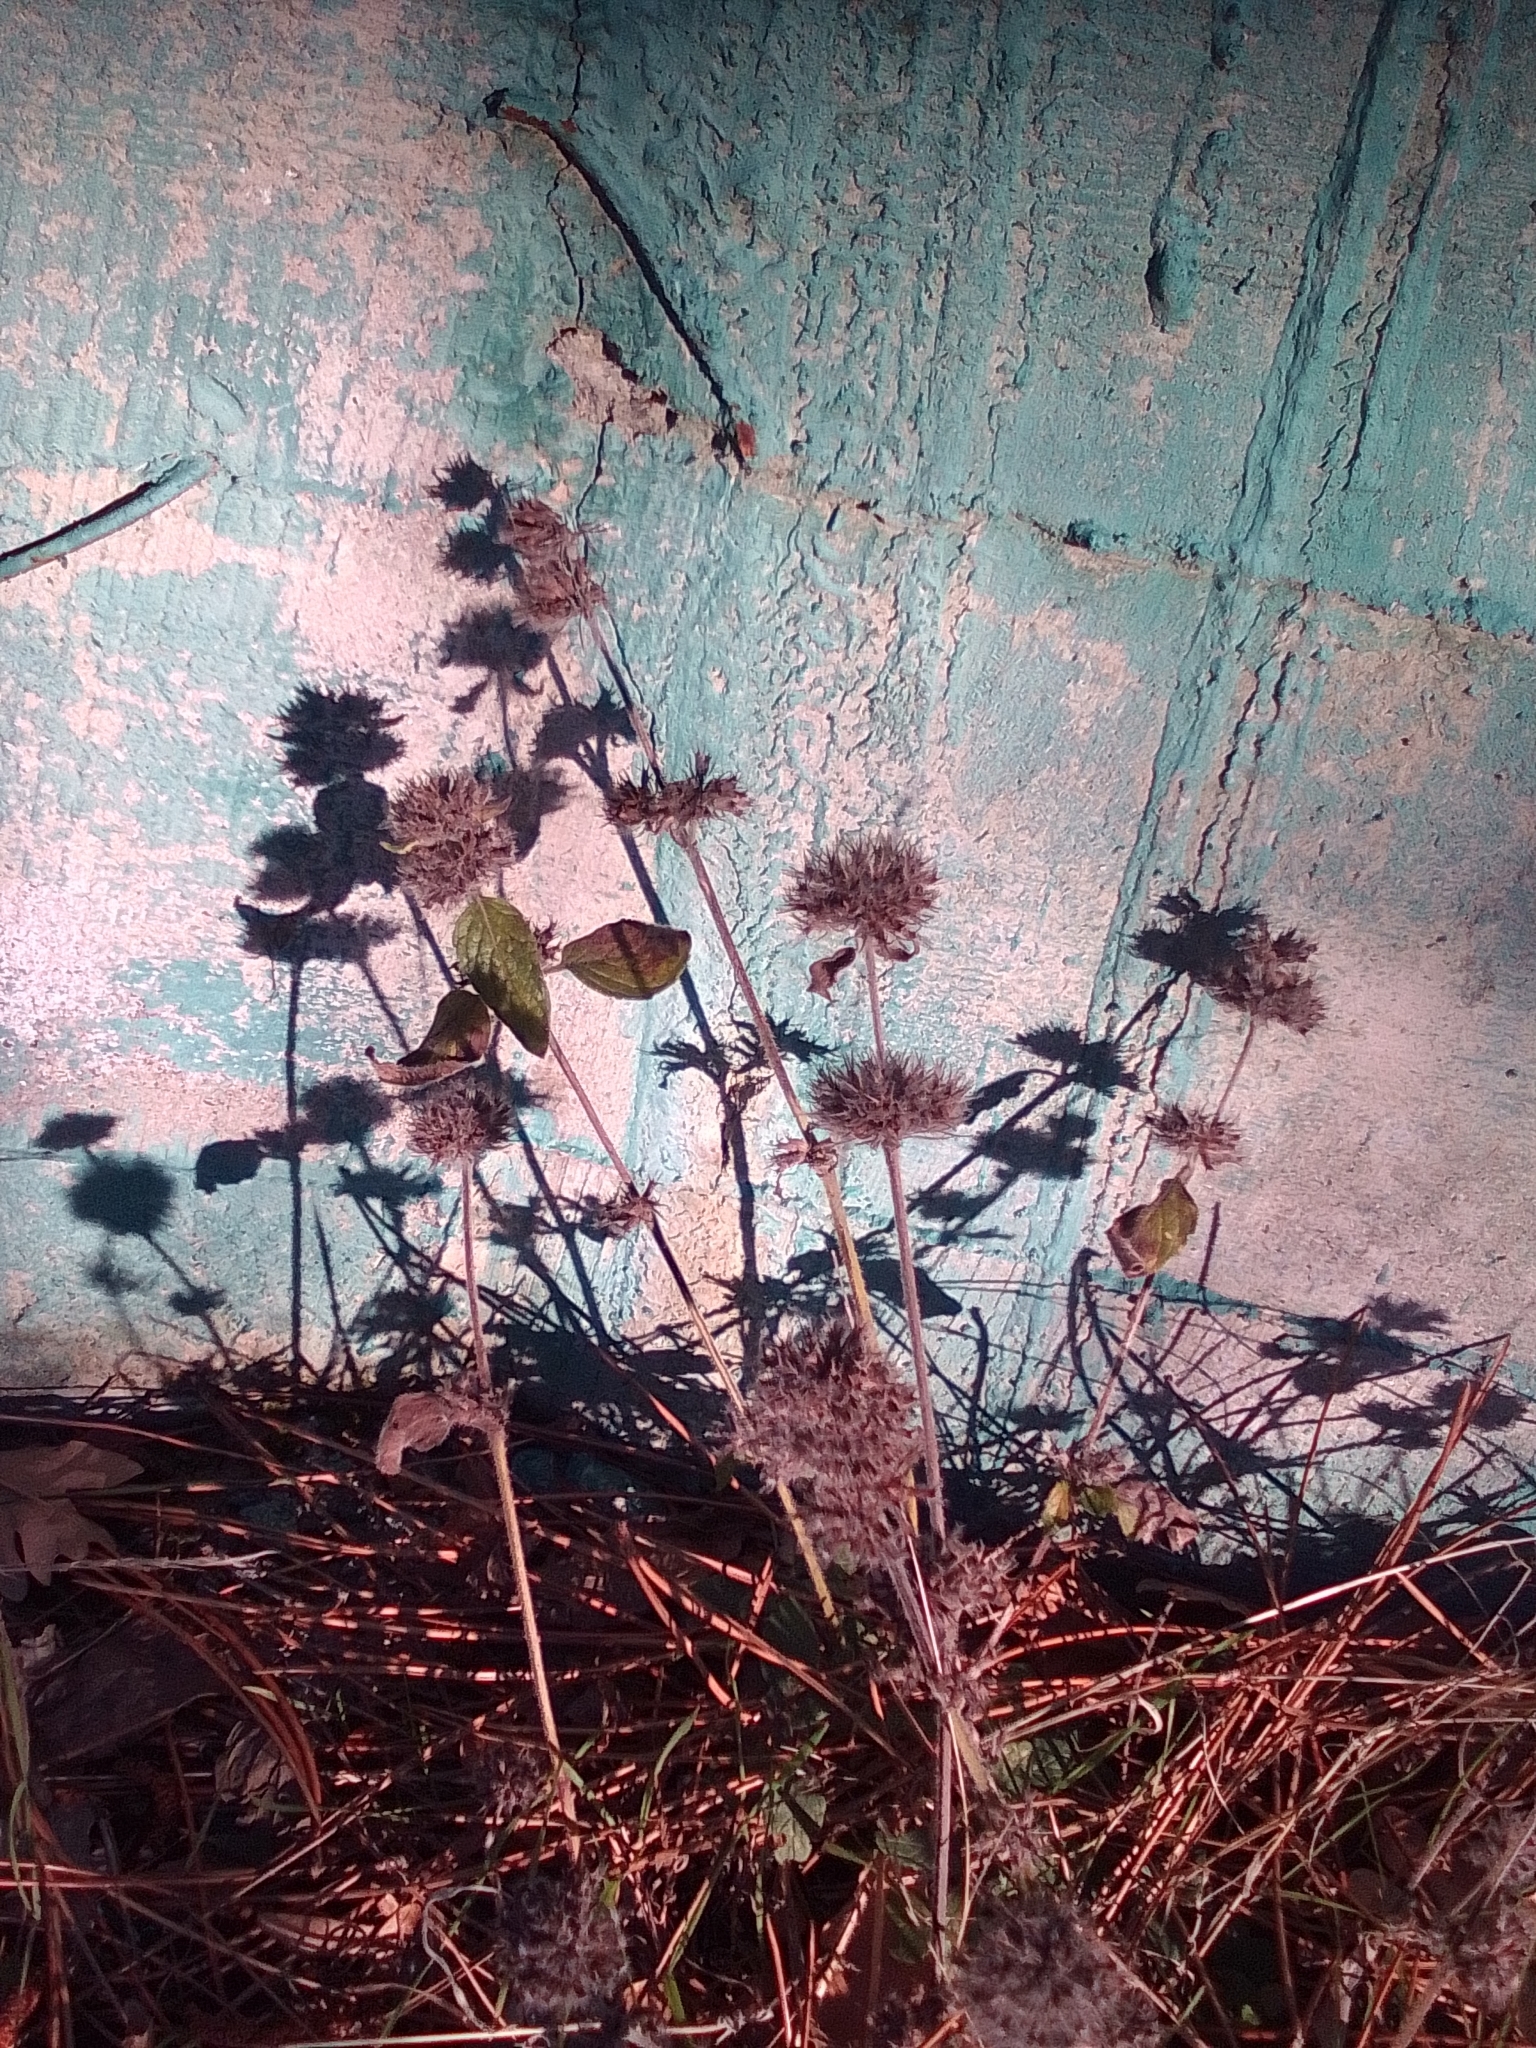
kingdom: Plantae
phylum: Tracheophyta
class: Magnoliopsida
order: Lamiales
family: Lamiaceae
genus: Clinopodium
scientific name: Clinopodium vulgare
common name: Wild basil
